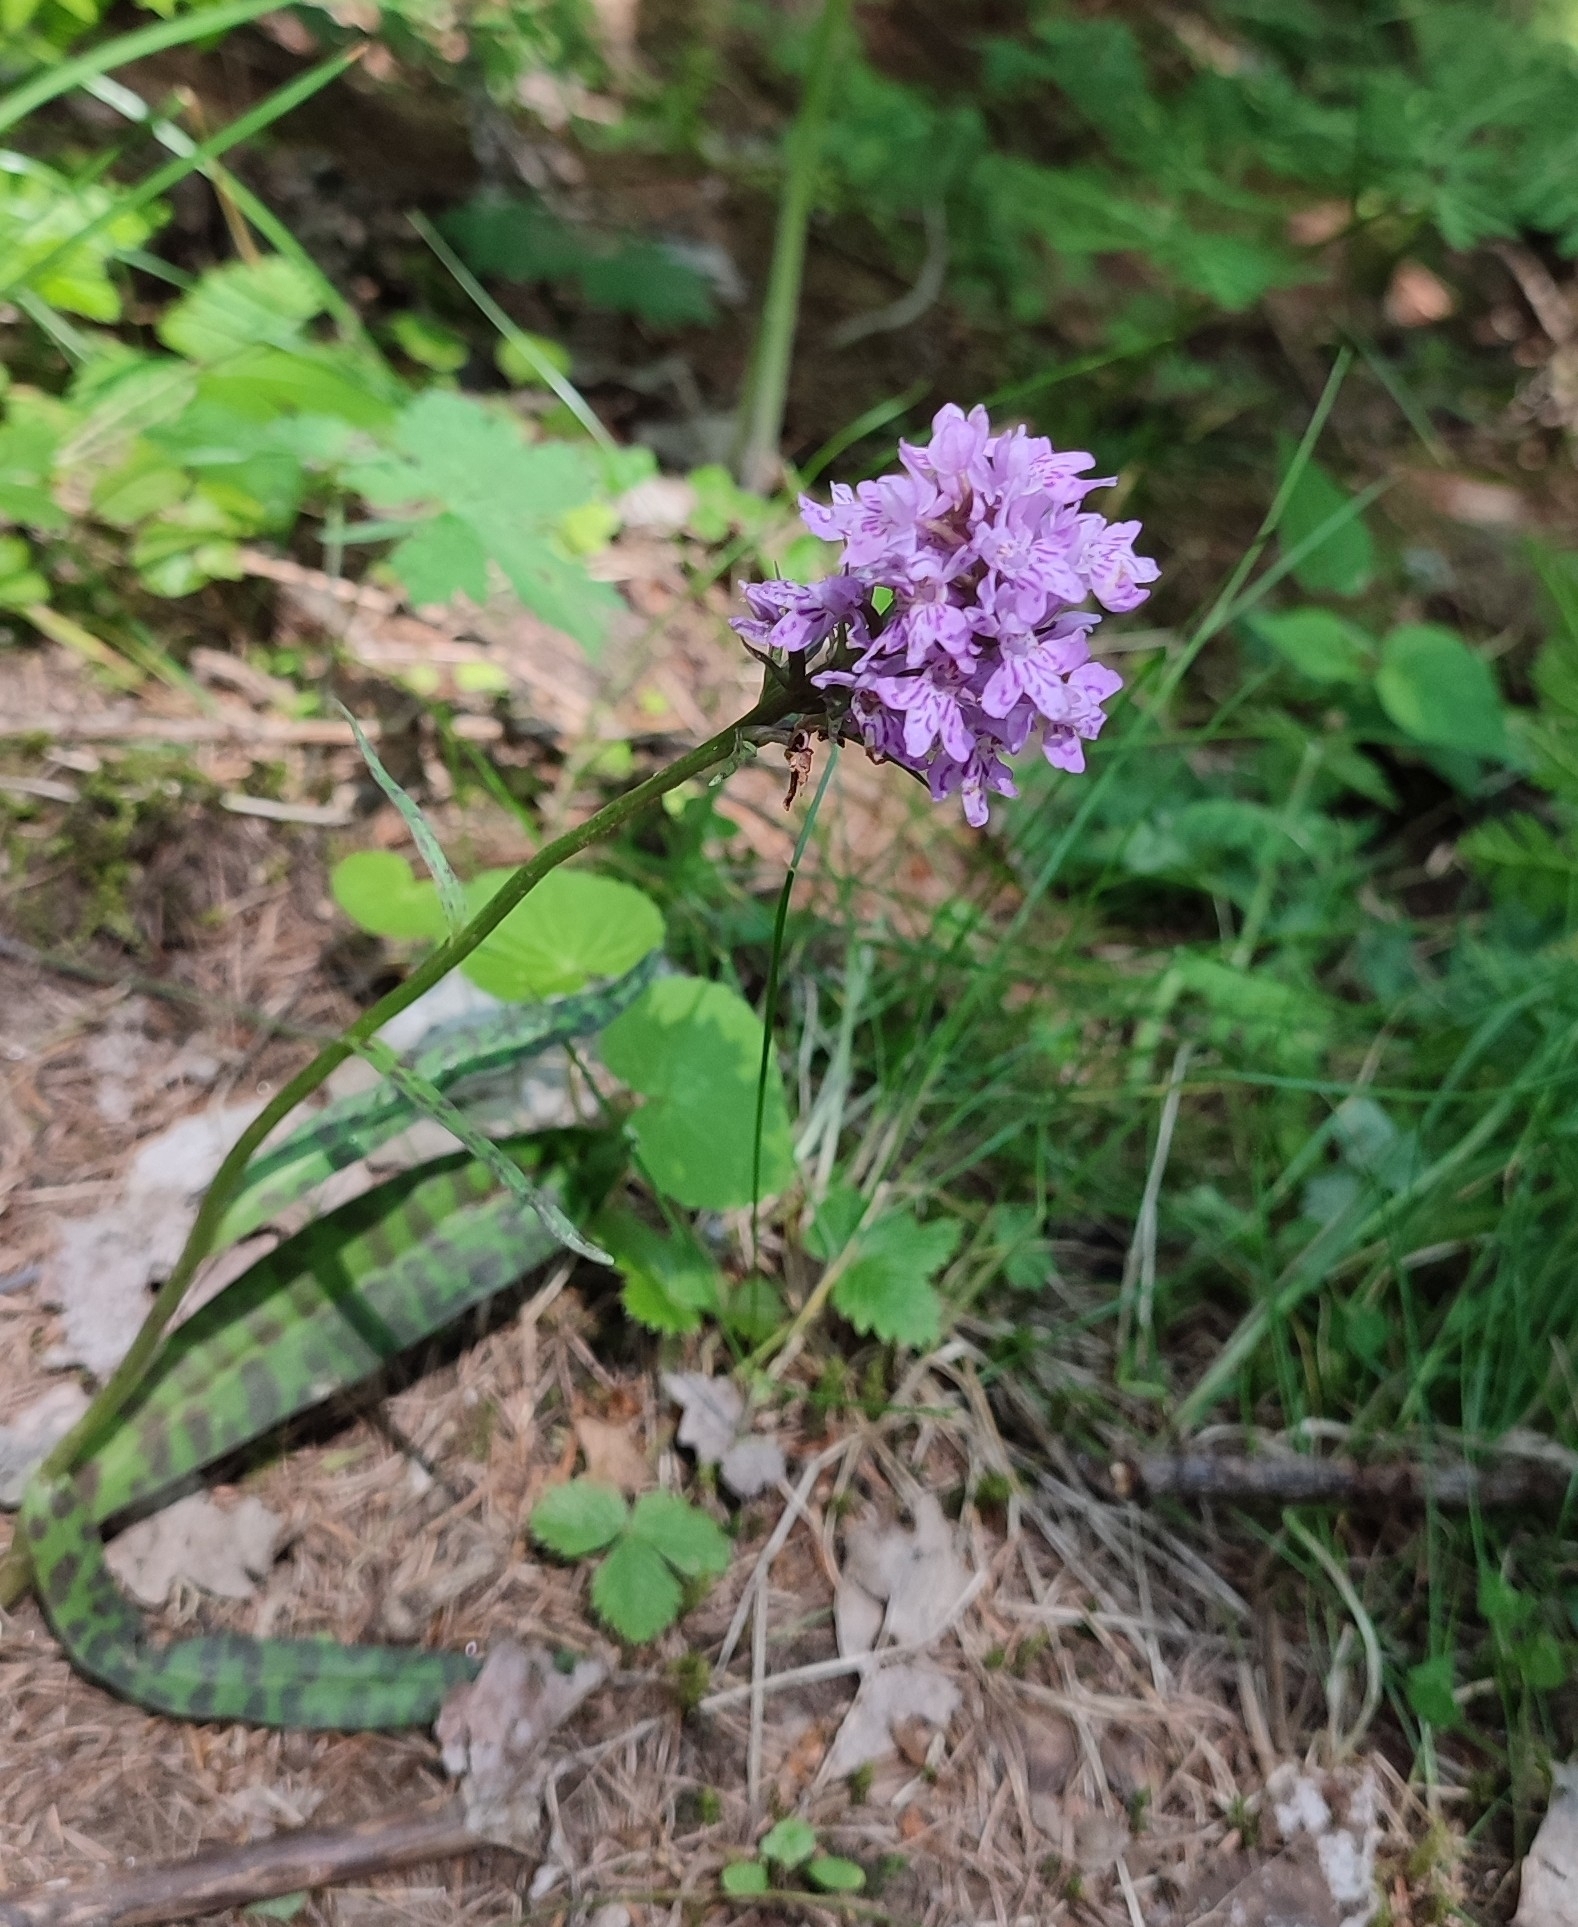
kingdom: Plantae
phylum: Tracheophyta
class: Liliopsida
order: Asparagales
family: Orchidaceae
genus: Dactylorhiza
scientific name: Dactylorhiza maculata
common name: Heath spotted-orchid
